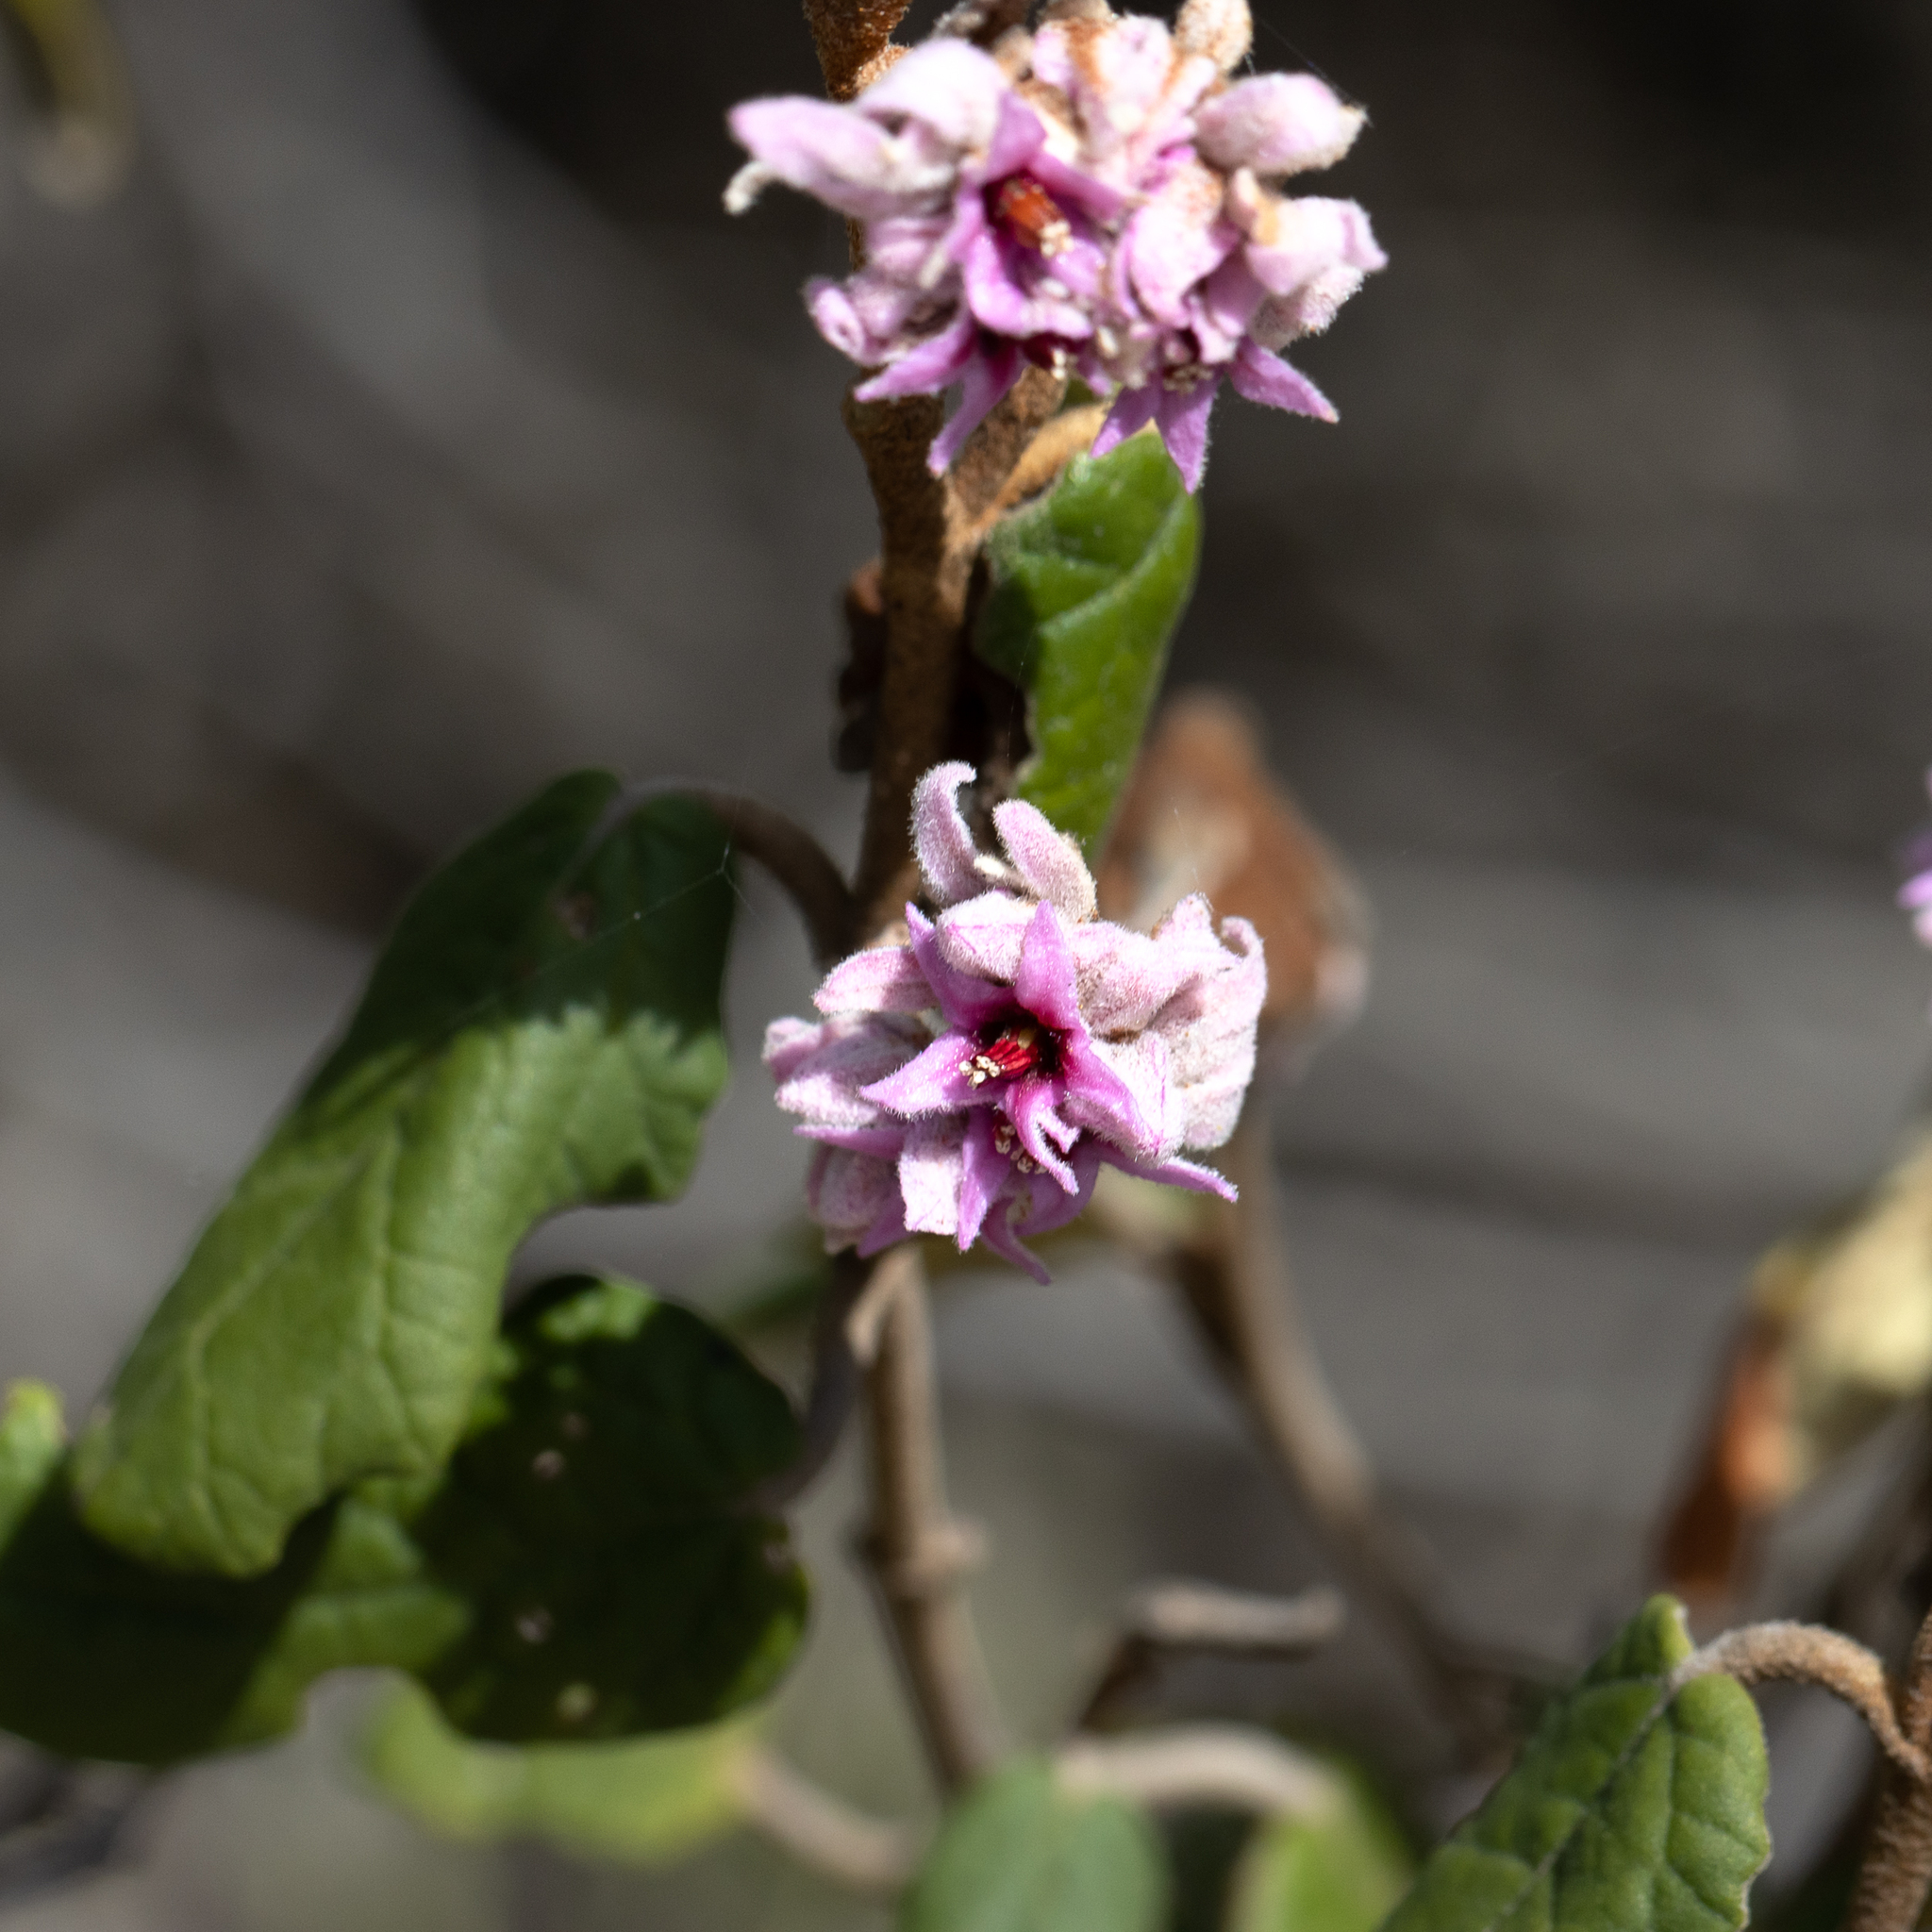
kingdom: Plantae
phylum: Tracheophyta
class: Magnoliopsida
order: Malvales
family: Malvaceae
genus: Lasiopetalum
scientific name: Lasiopetalum discolor
